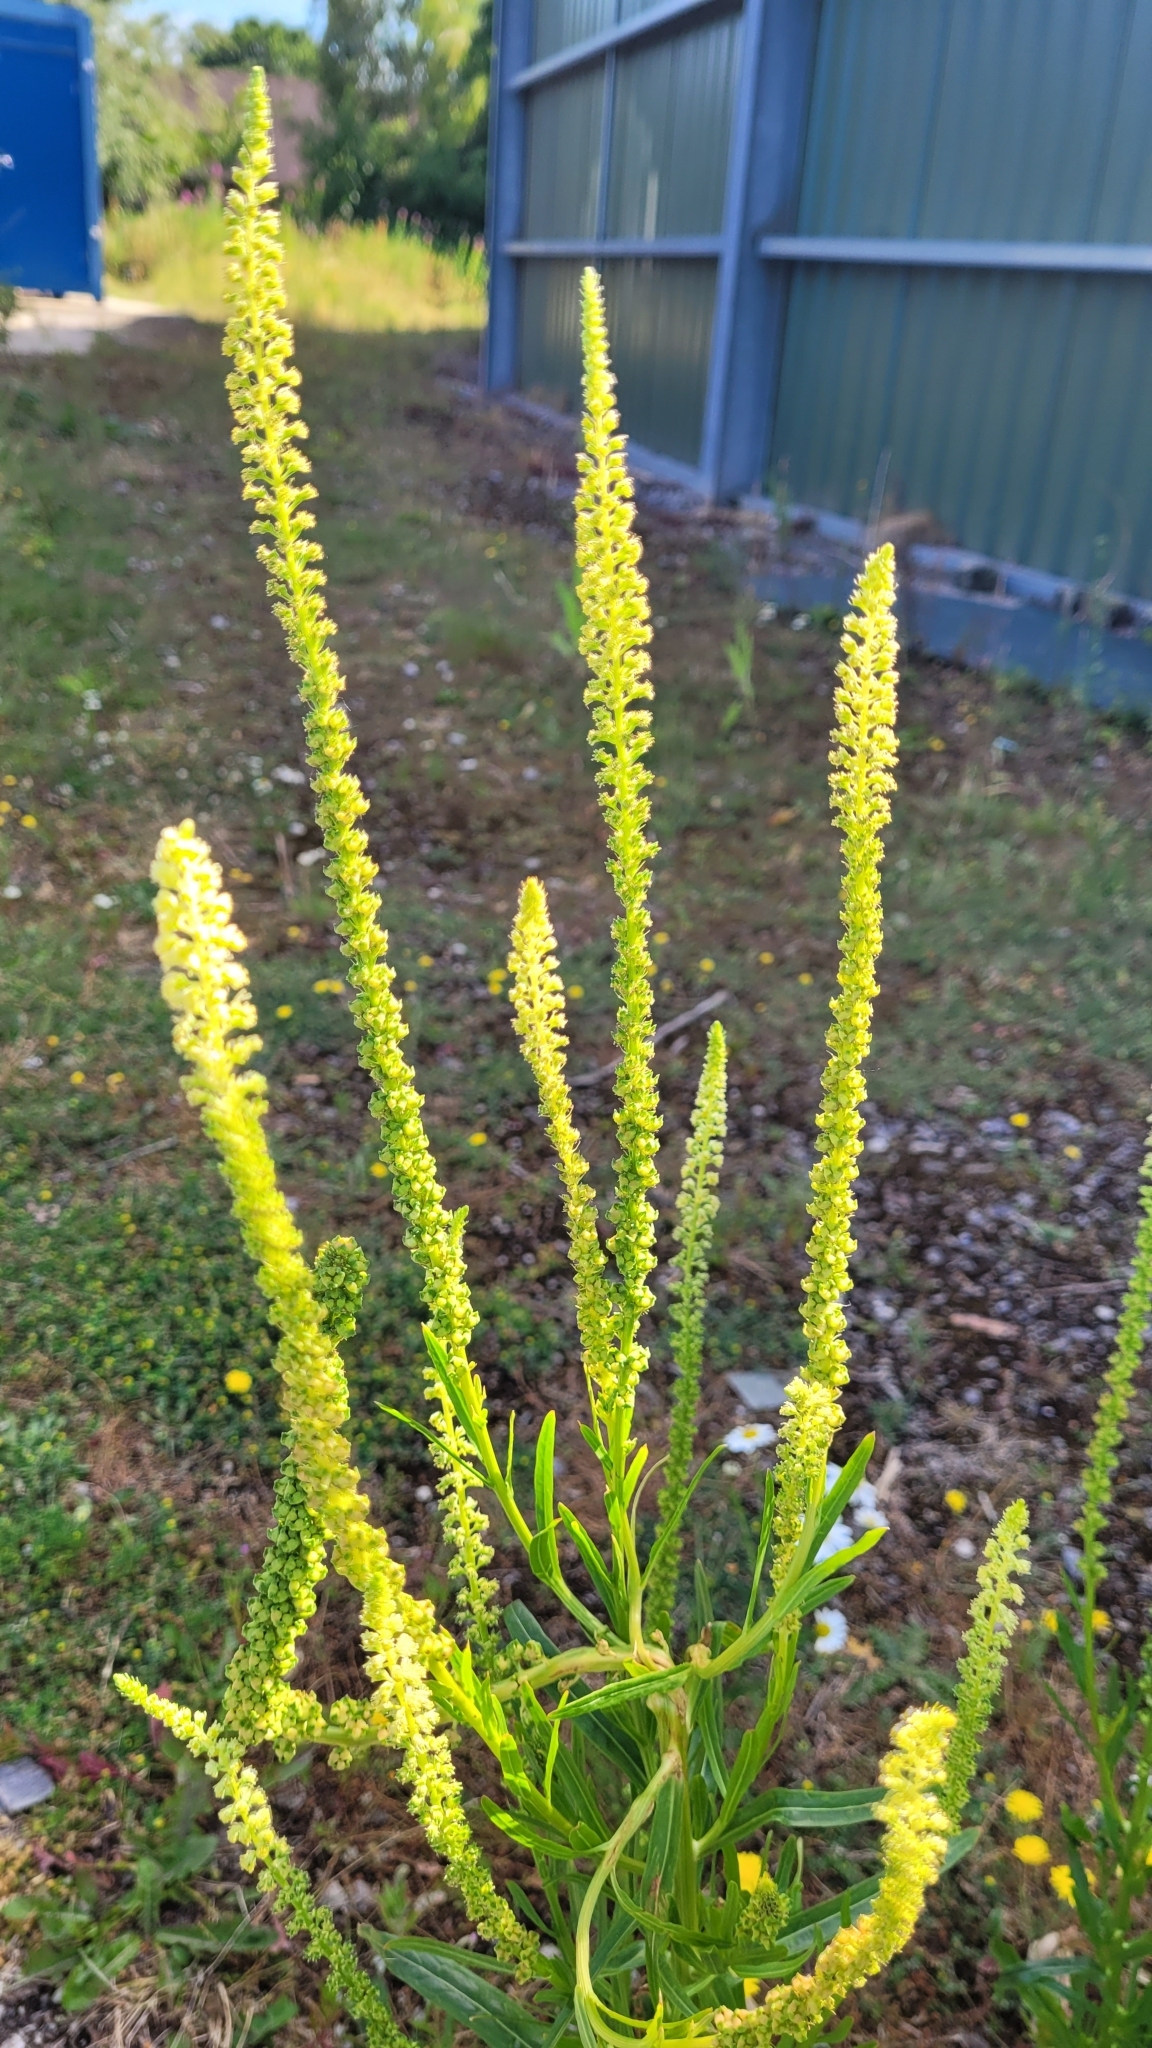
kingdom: Plantae
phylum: Tracheophyta
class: Magnoliopsida
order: Brassicales
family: Resedaceae
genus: Reseda
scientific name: Reseda luteola
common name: Weld
